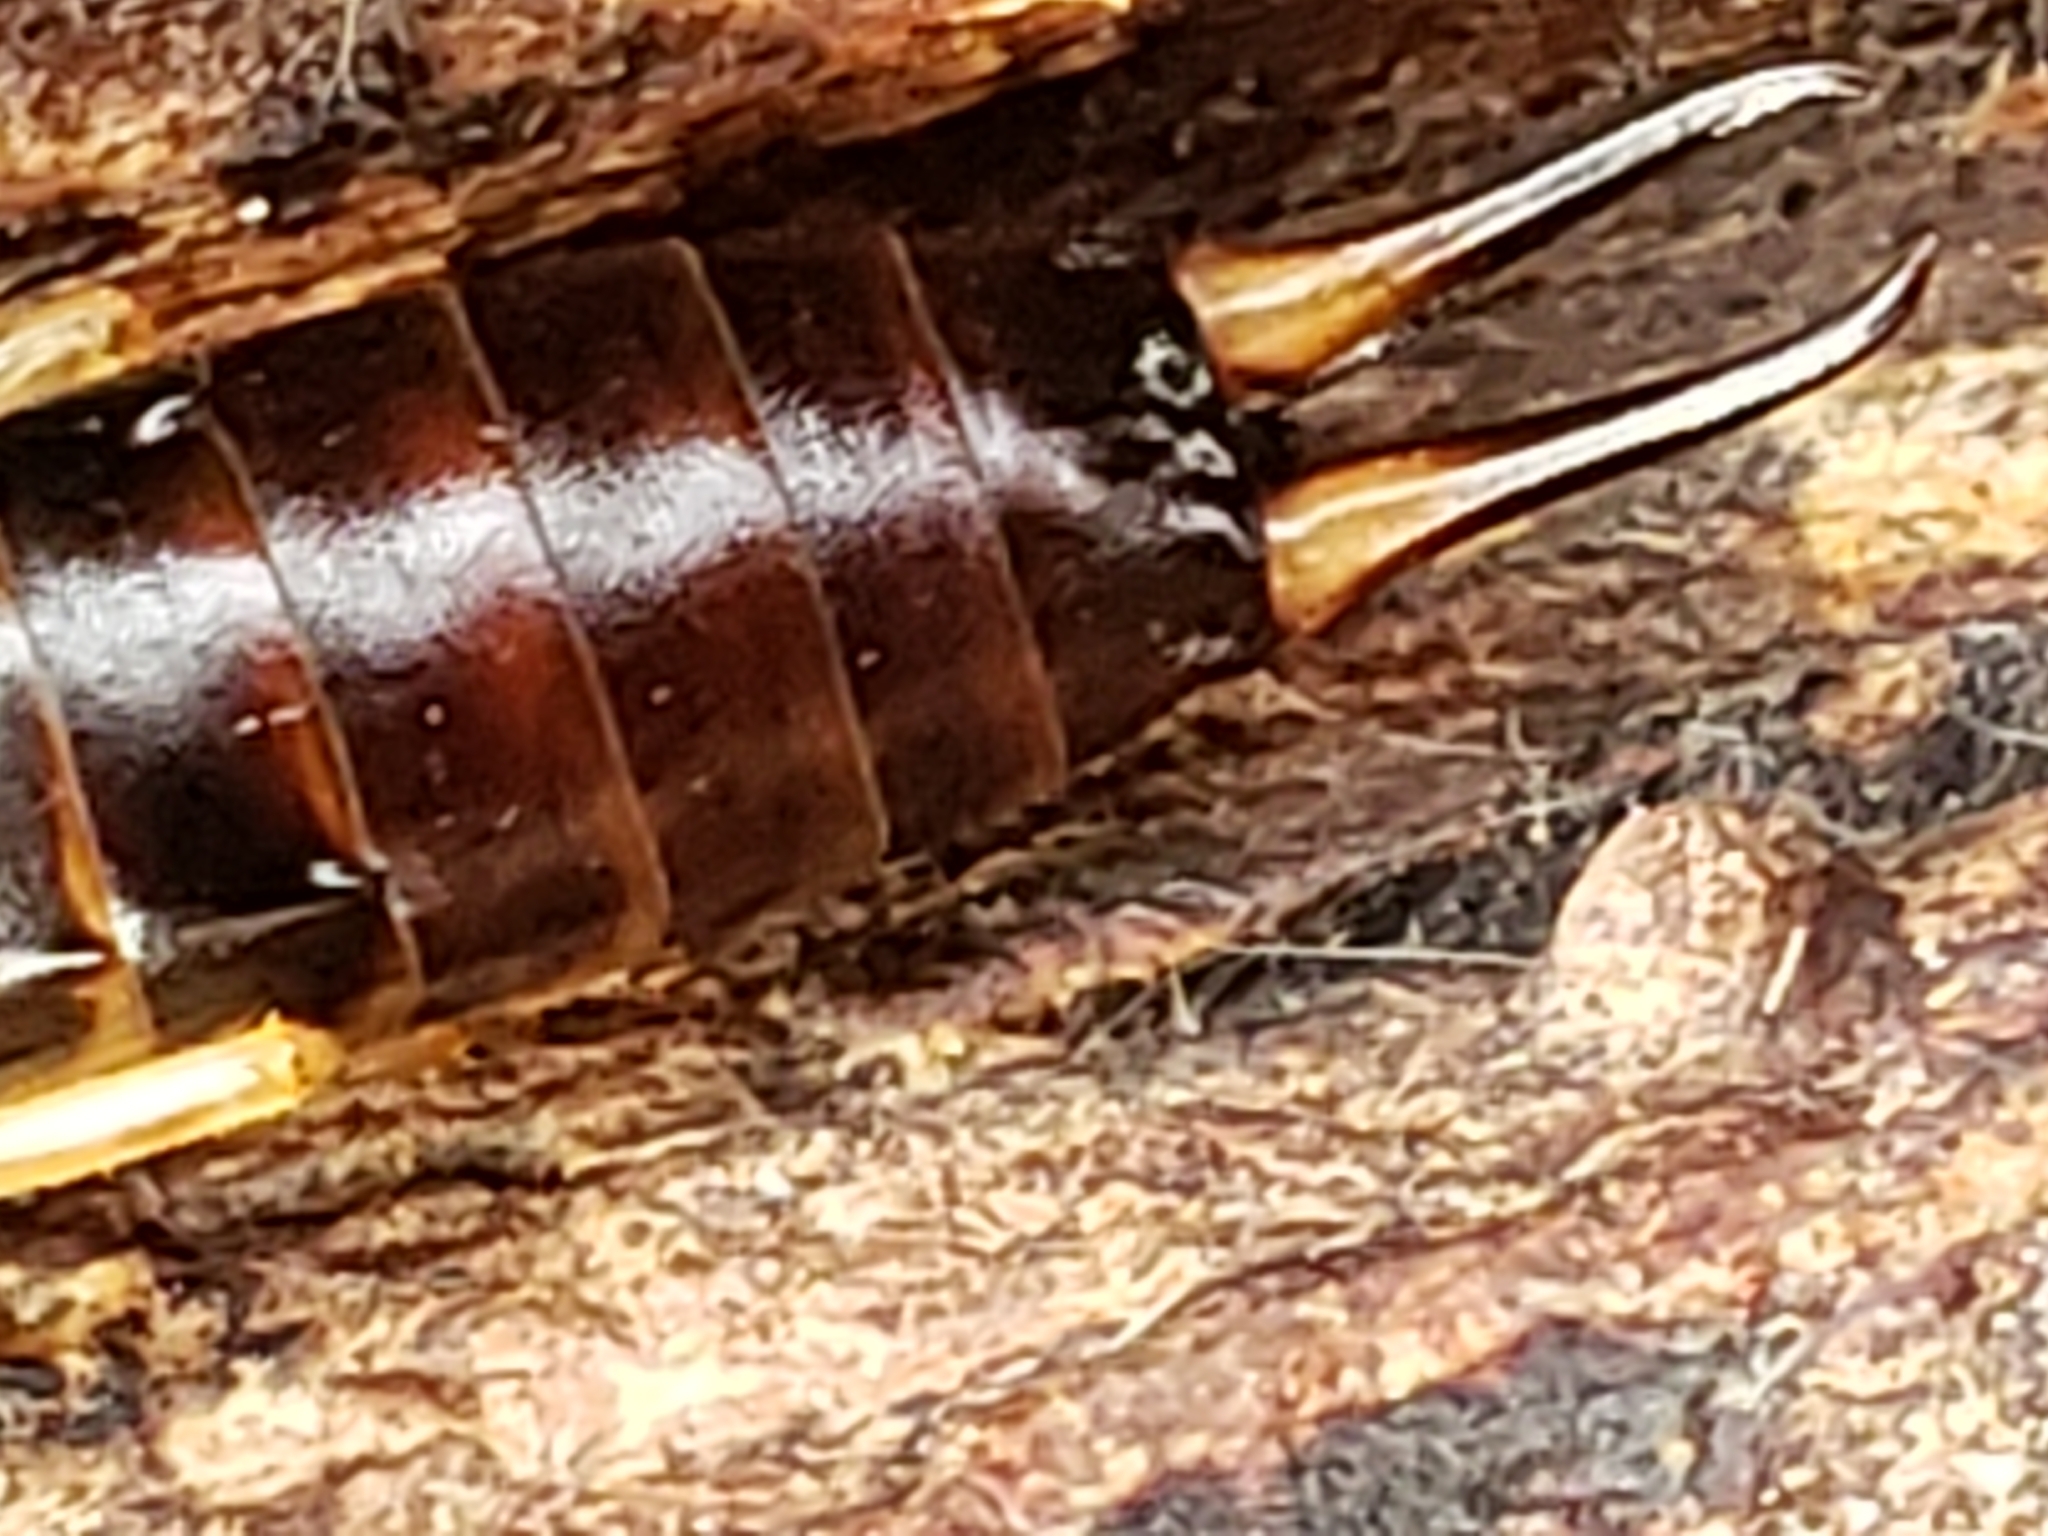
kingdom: Animalia
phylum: Arthropoda
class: Insecta
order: Dermaptera
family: Forficulidae
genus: Forficula
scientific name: Forficula
